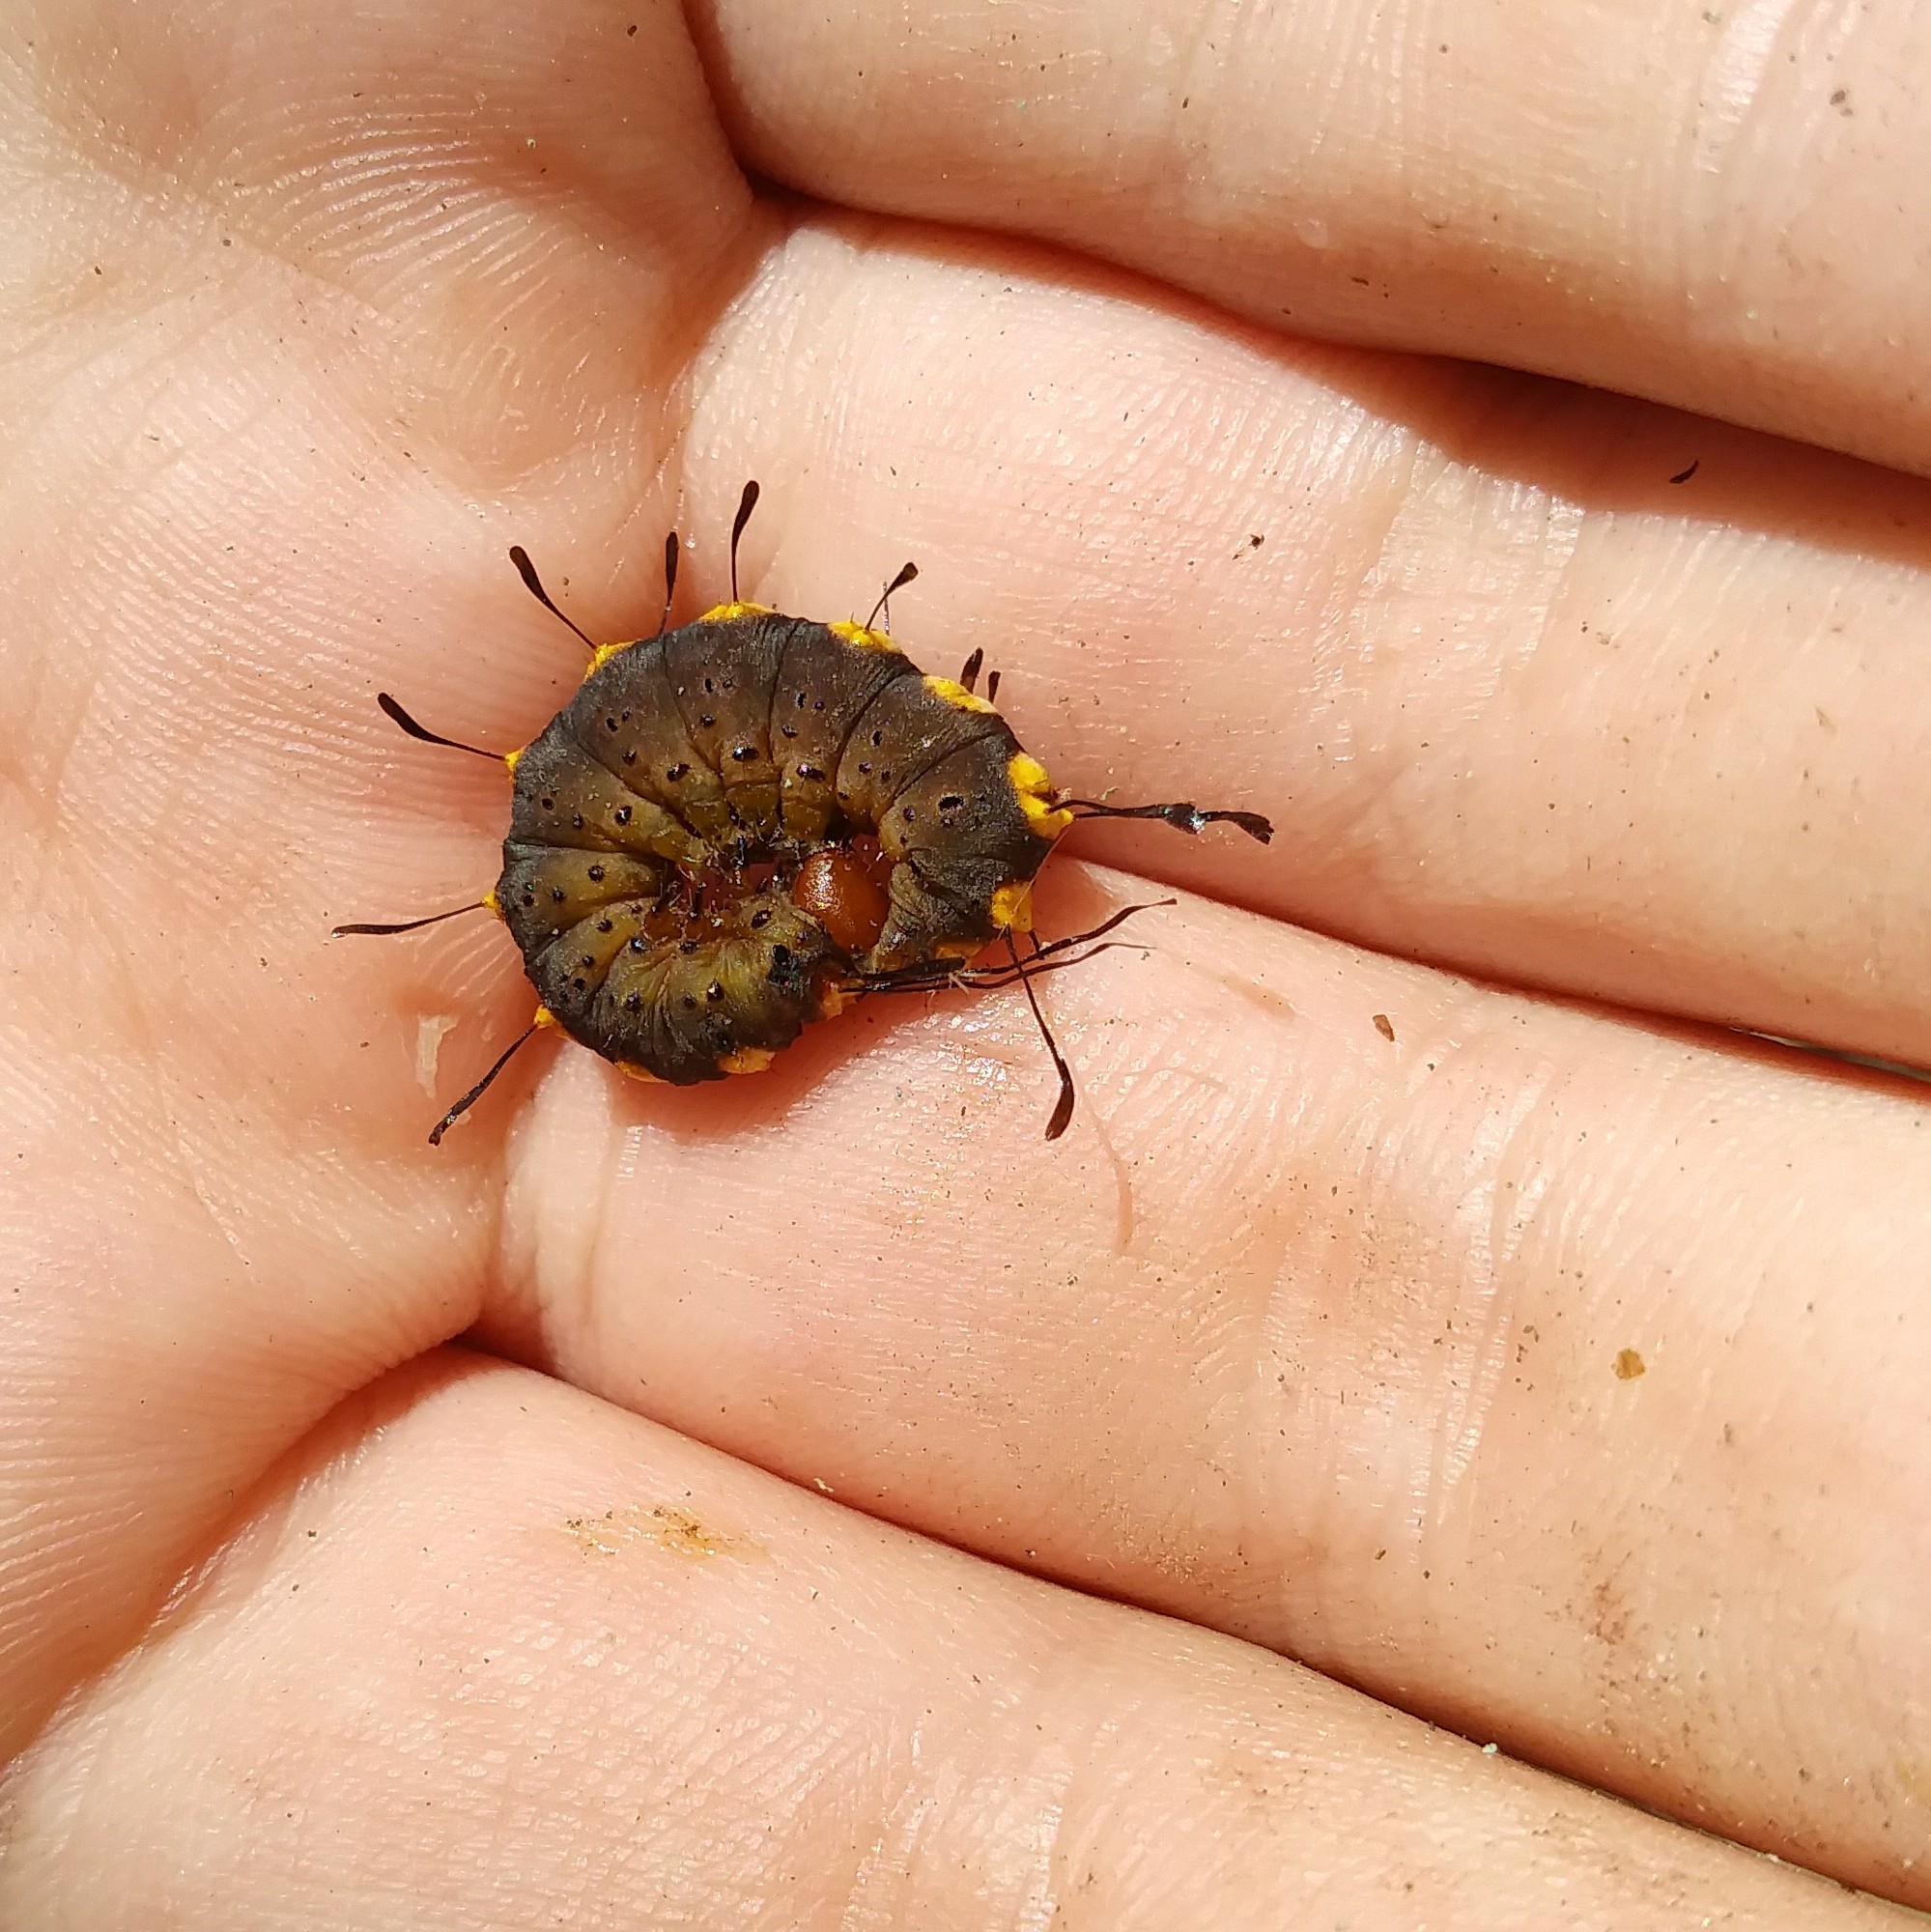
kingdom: Animalia
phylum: Arthropoda
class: Insecta
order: Lepidoptera
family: Noctuidae
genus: Acronicta
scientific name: Acronicta funeralis
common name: Funerary dagger
